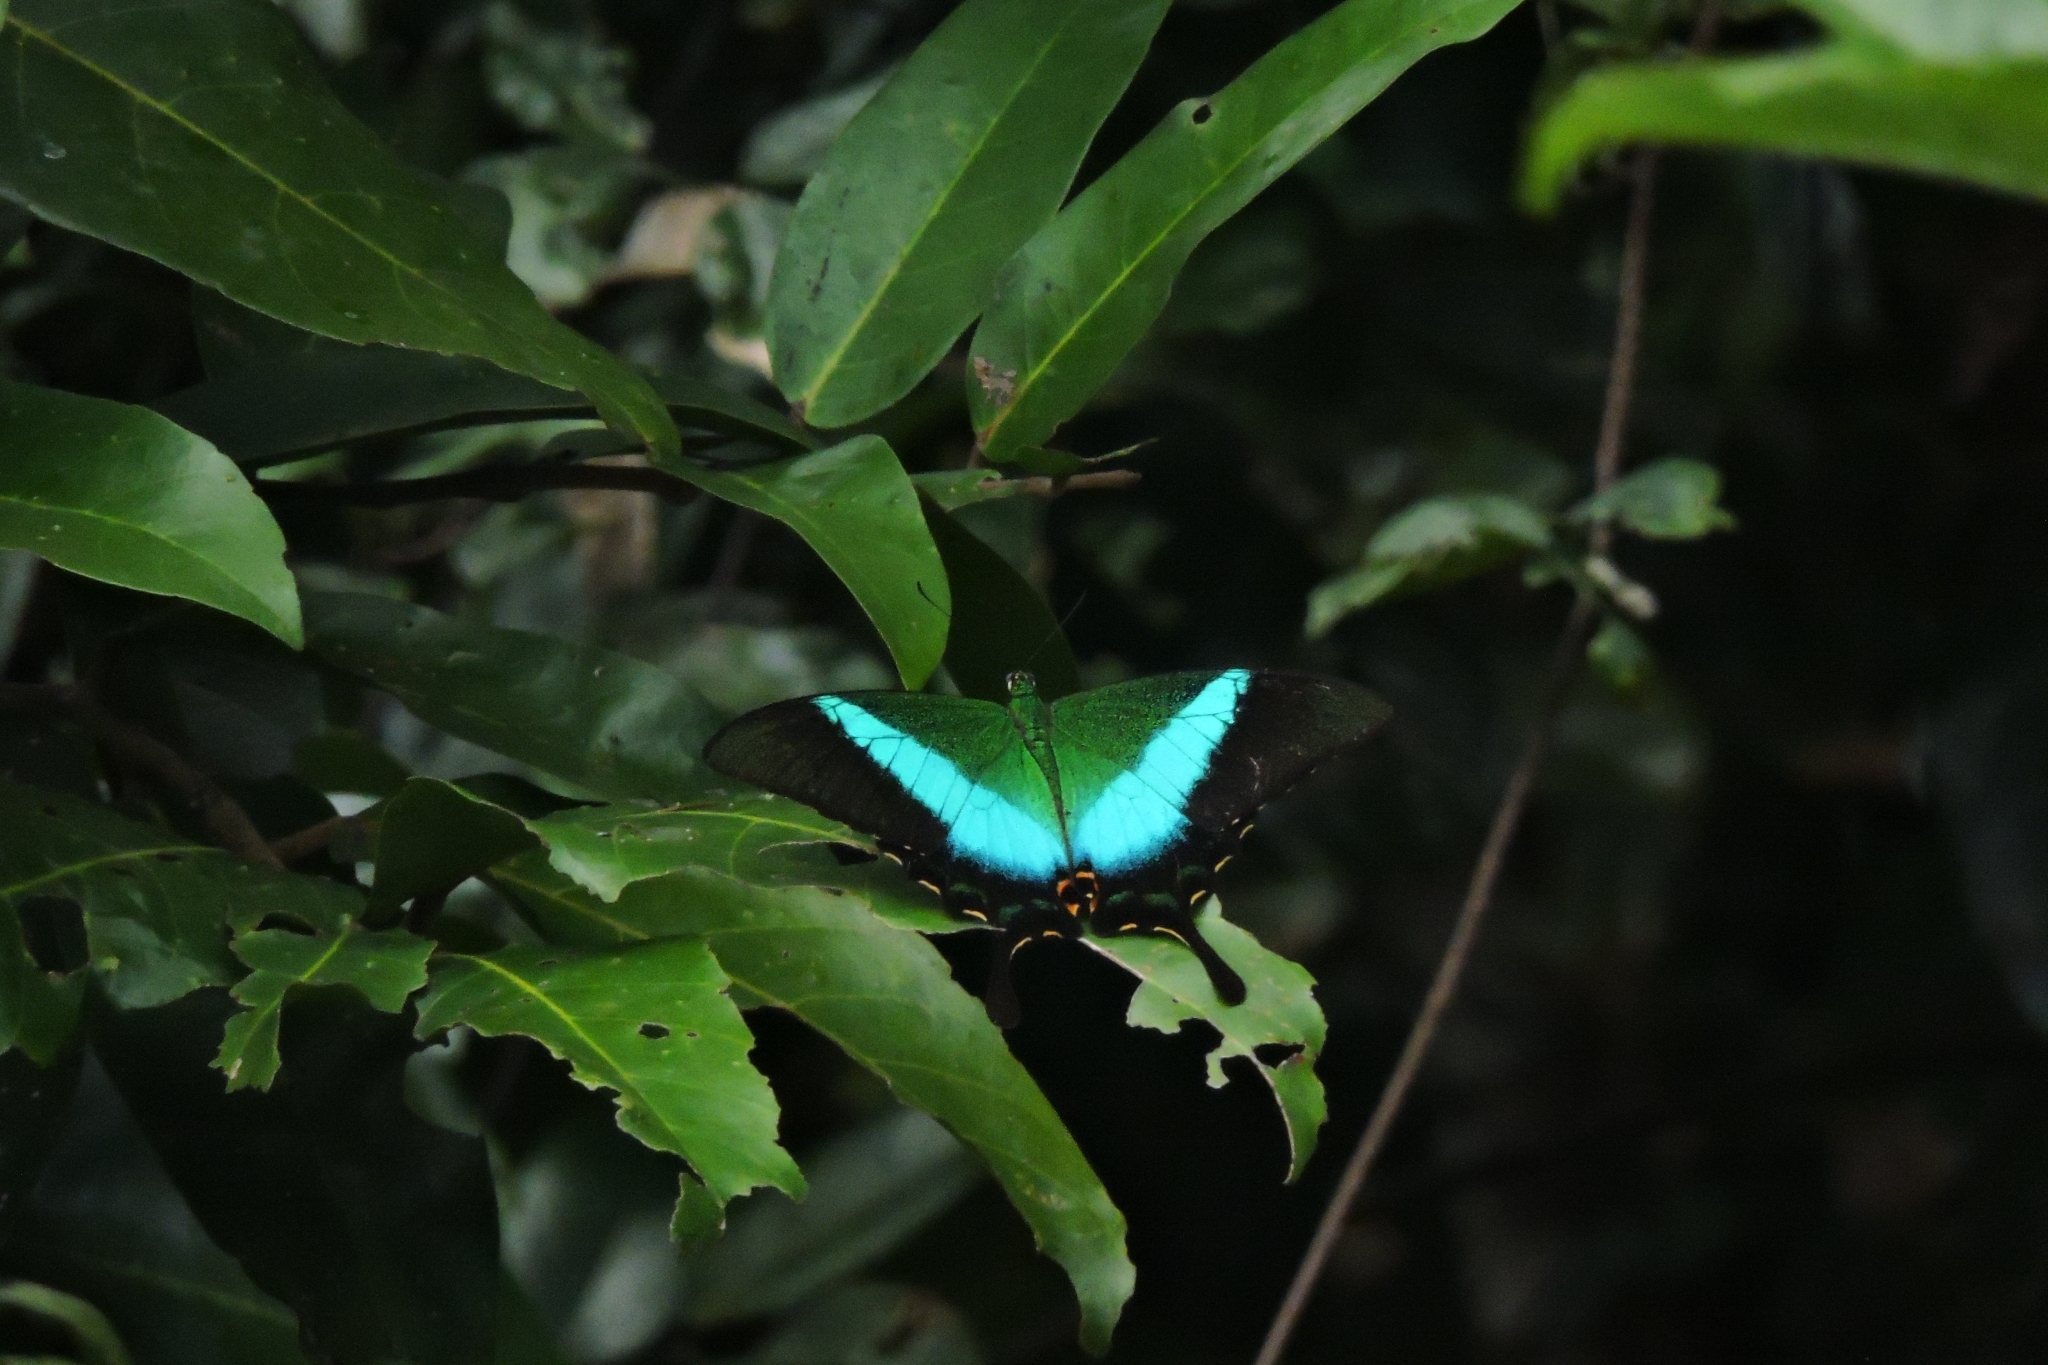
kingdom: Animalia
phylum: Arthropoda
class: Insecta
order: Lepidoptera
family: Papilionidae
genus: Papilio
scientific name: Papilio buddha
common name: Malabar banded peacock
